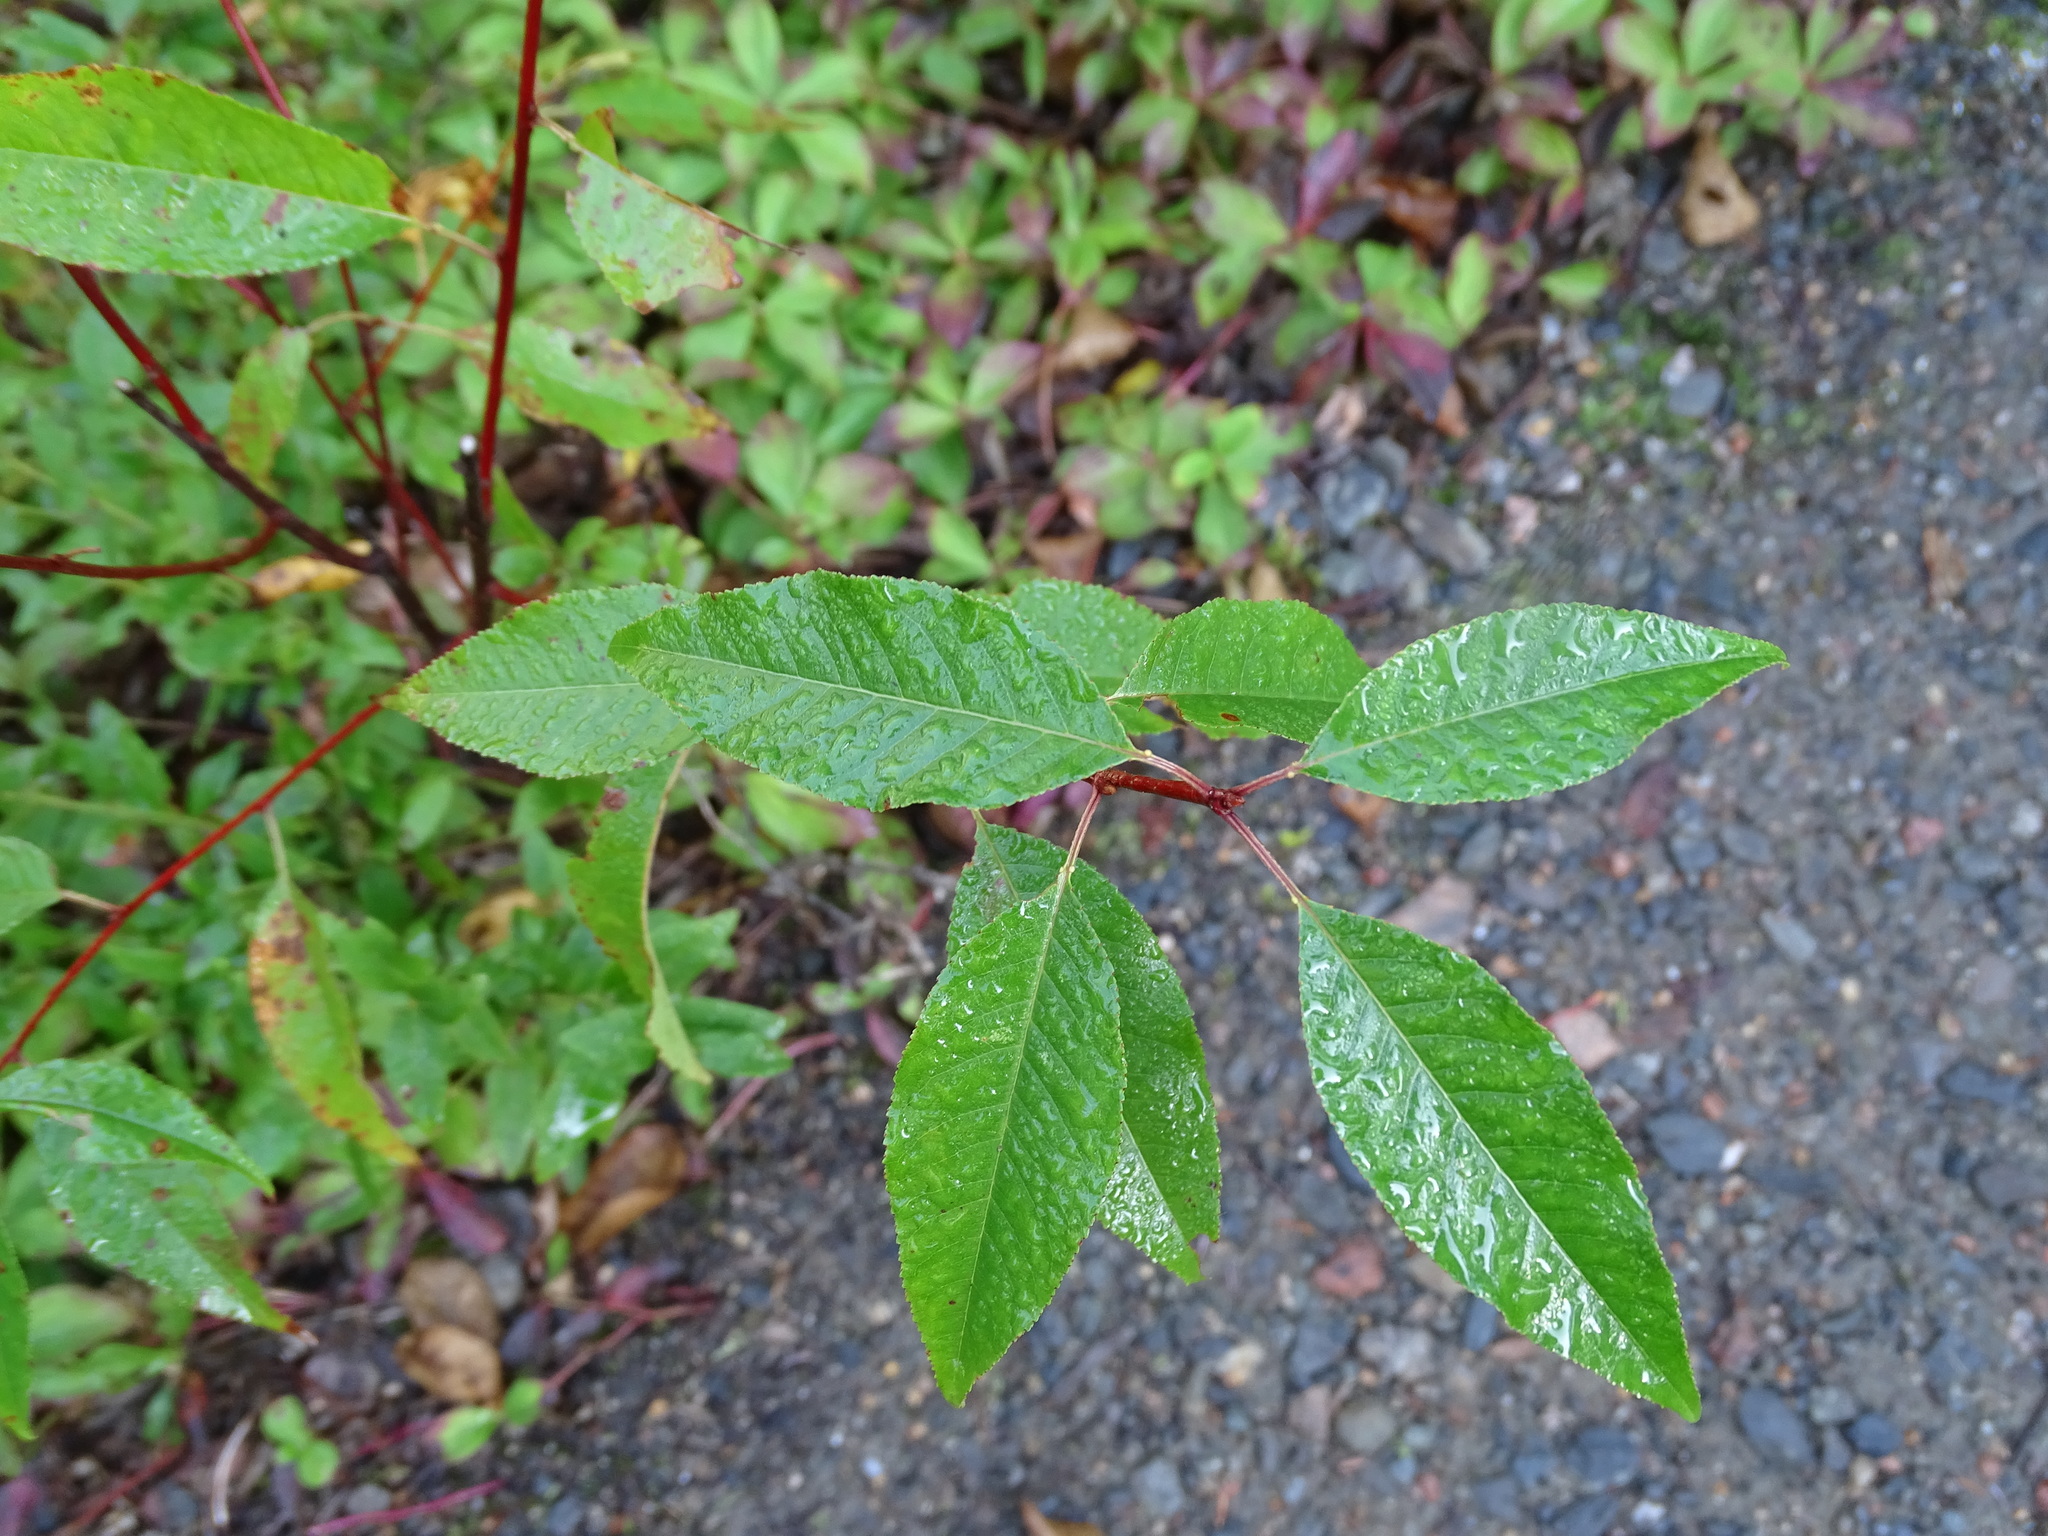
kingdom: Plantae
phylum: Tracheophyta
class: Magnoliopsida
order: Rosales
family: Rosaceae
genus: Prunus
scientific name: Prunus pensylvanica
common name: Pin cherry
